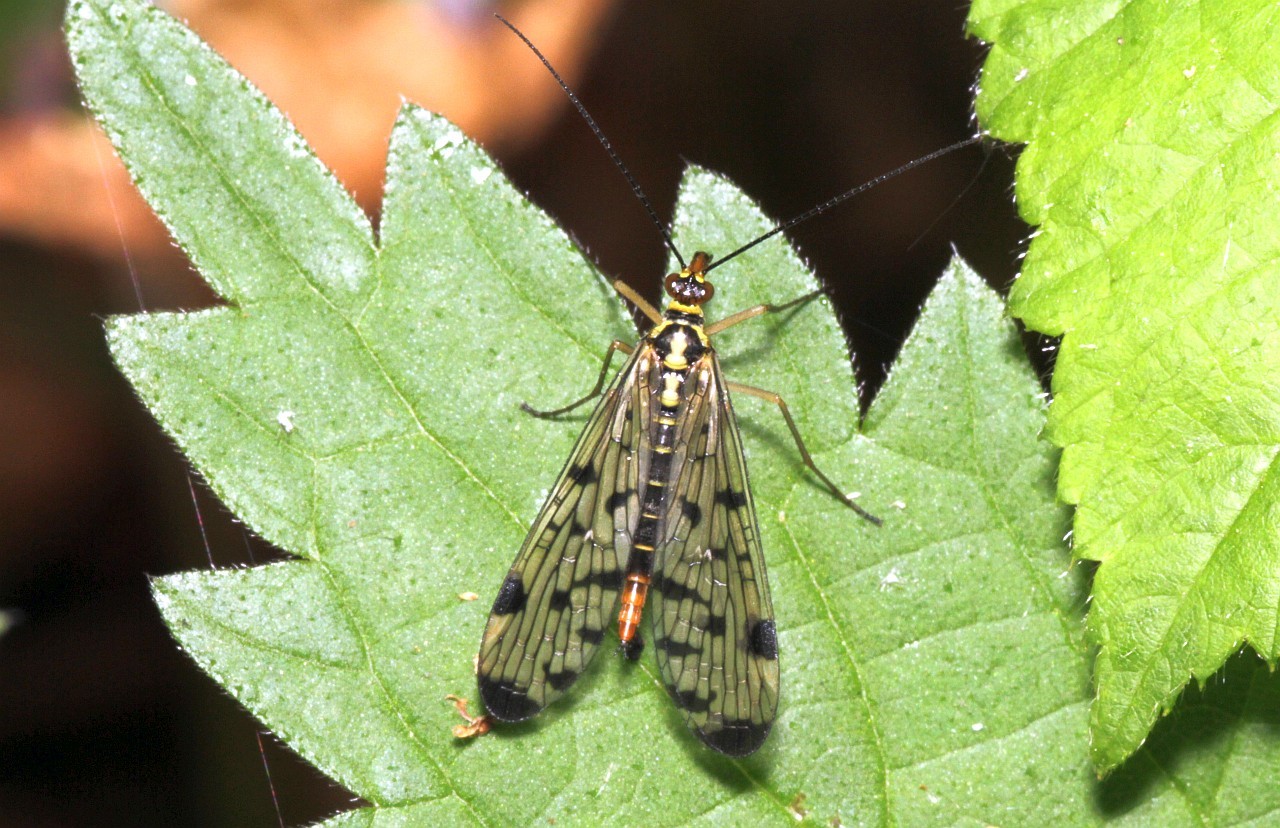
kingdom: Animalia
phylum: Arthropoda
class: Insecta
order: Mecoptera
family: Panorpidae
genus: Panorpa
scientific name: Panorpa germanica
